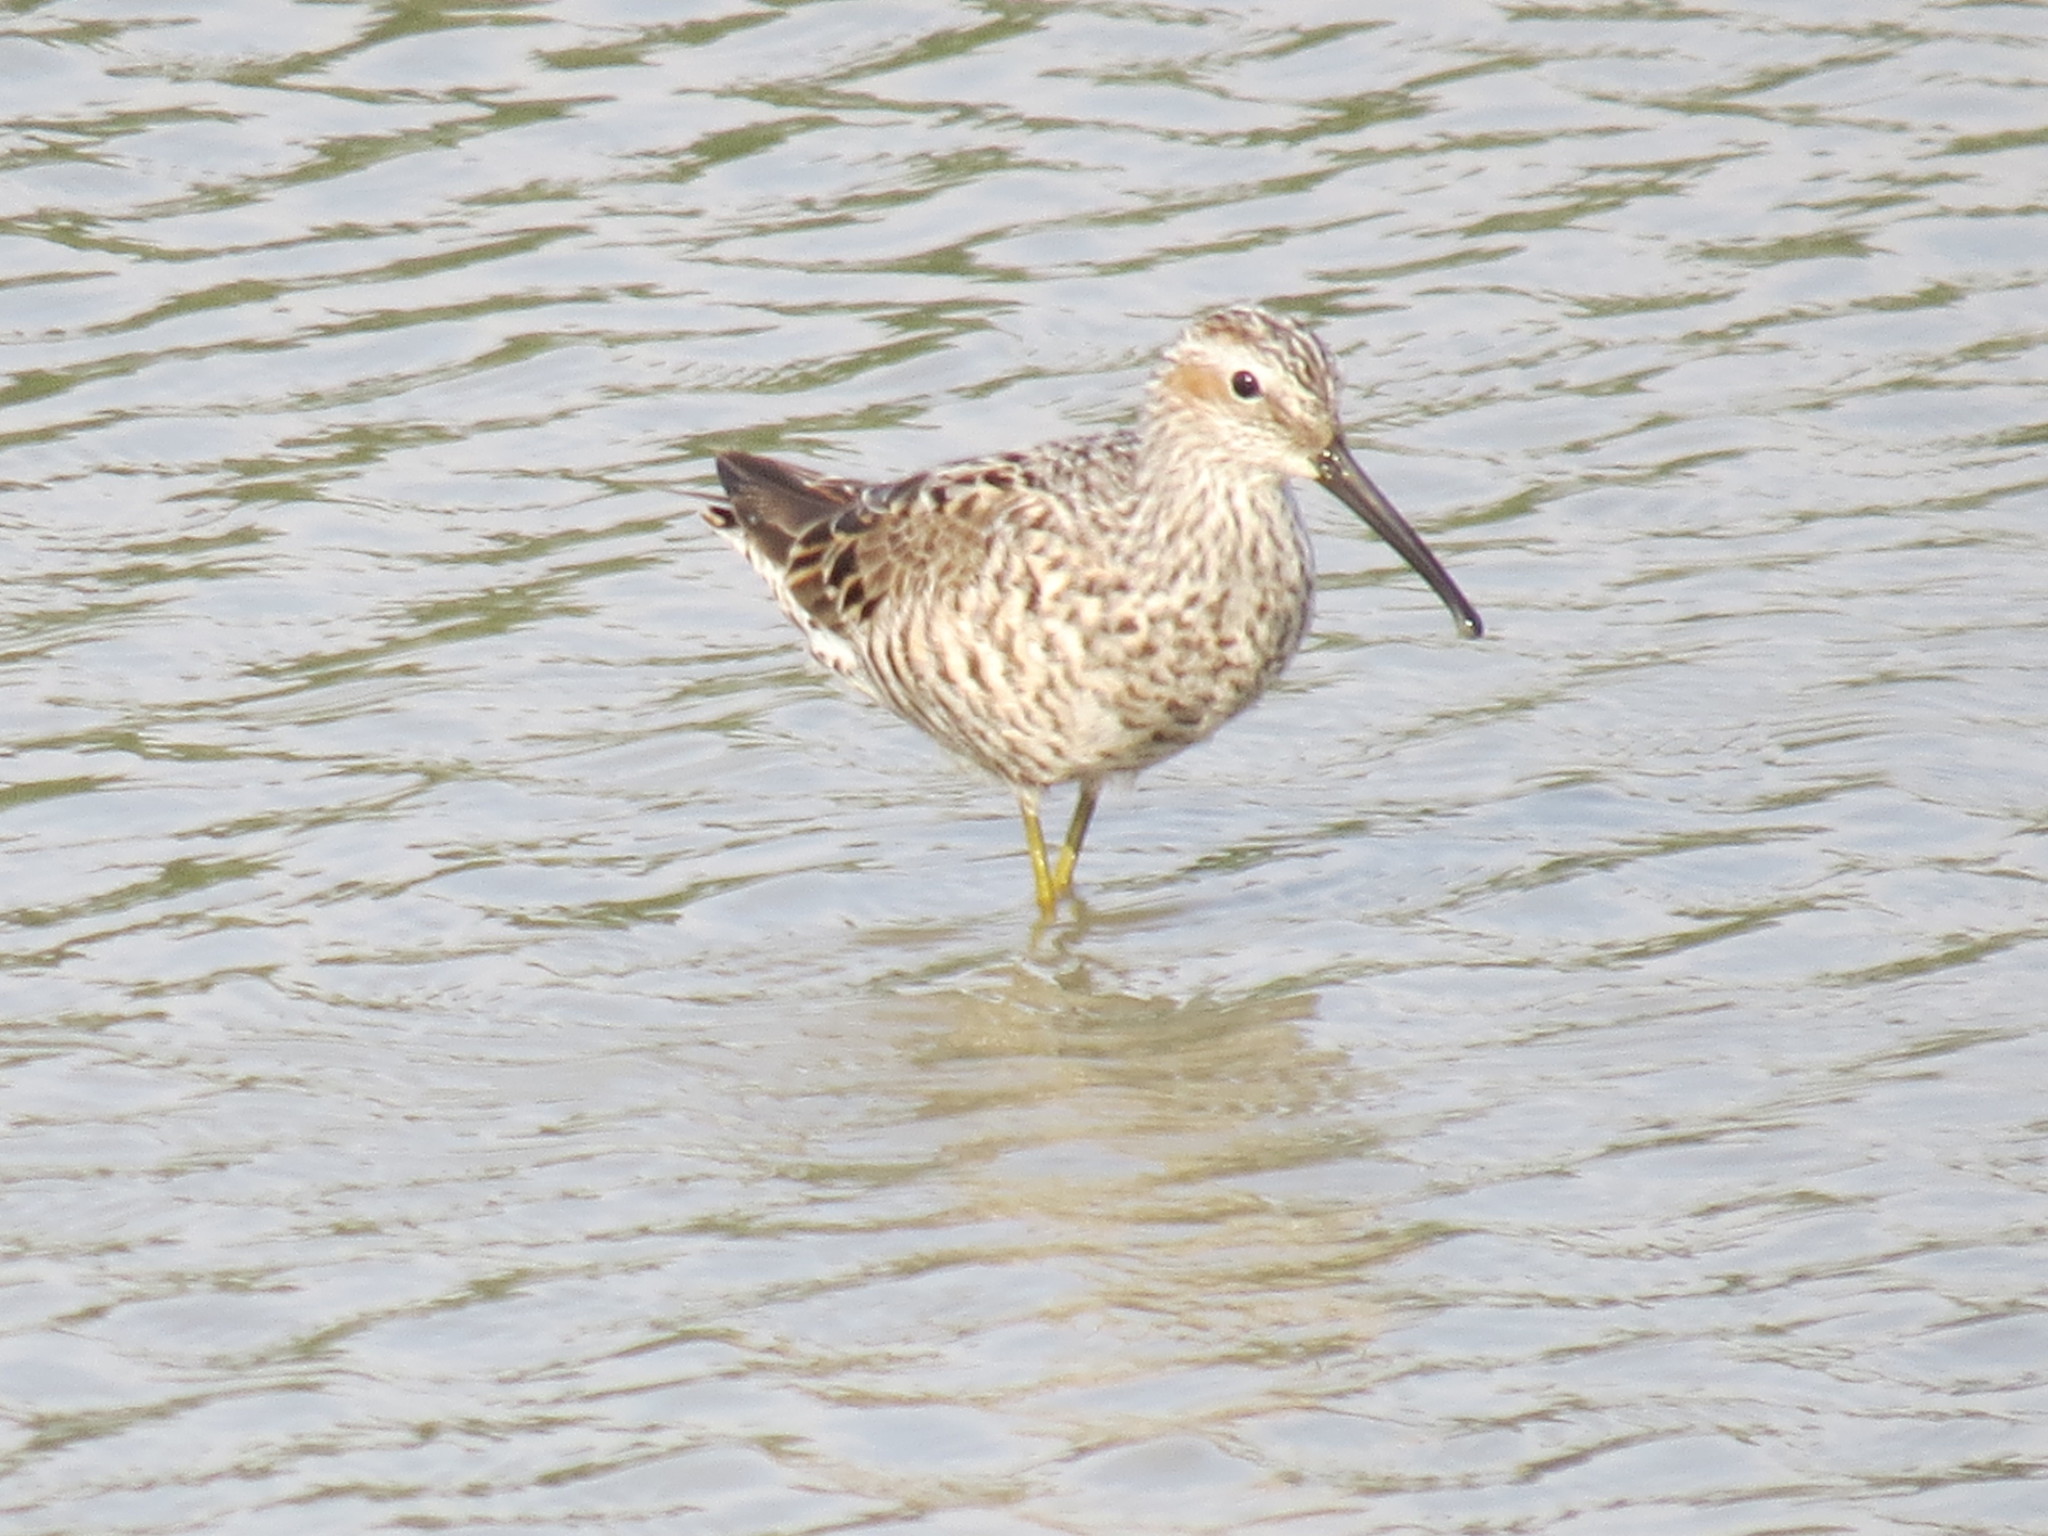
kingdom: Animalia
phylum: Chordata
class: Aves
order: Charadriiformes
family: Scolopacidae
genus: Calidris
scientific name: Calidris himantopus
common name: Stilt sandpiper
